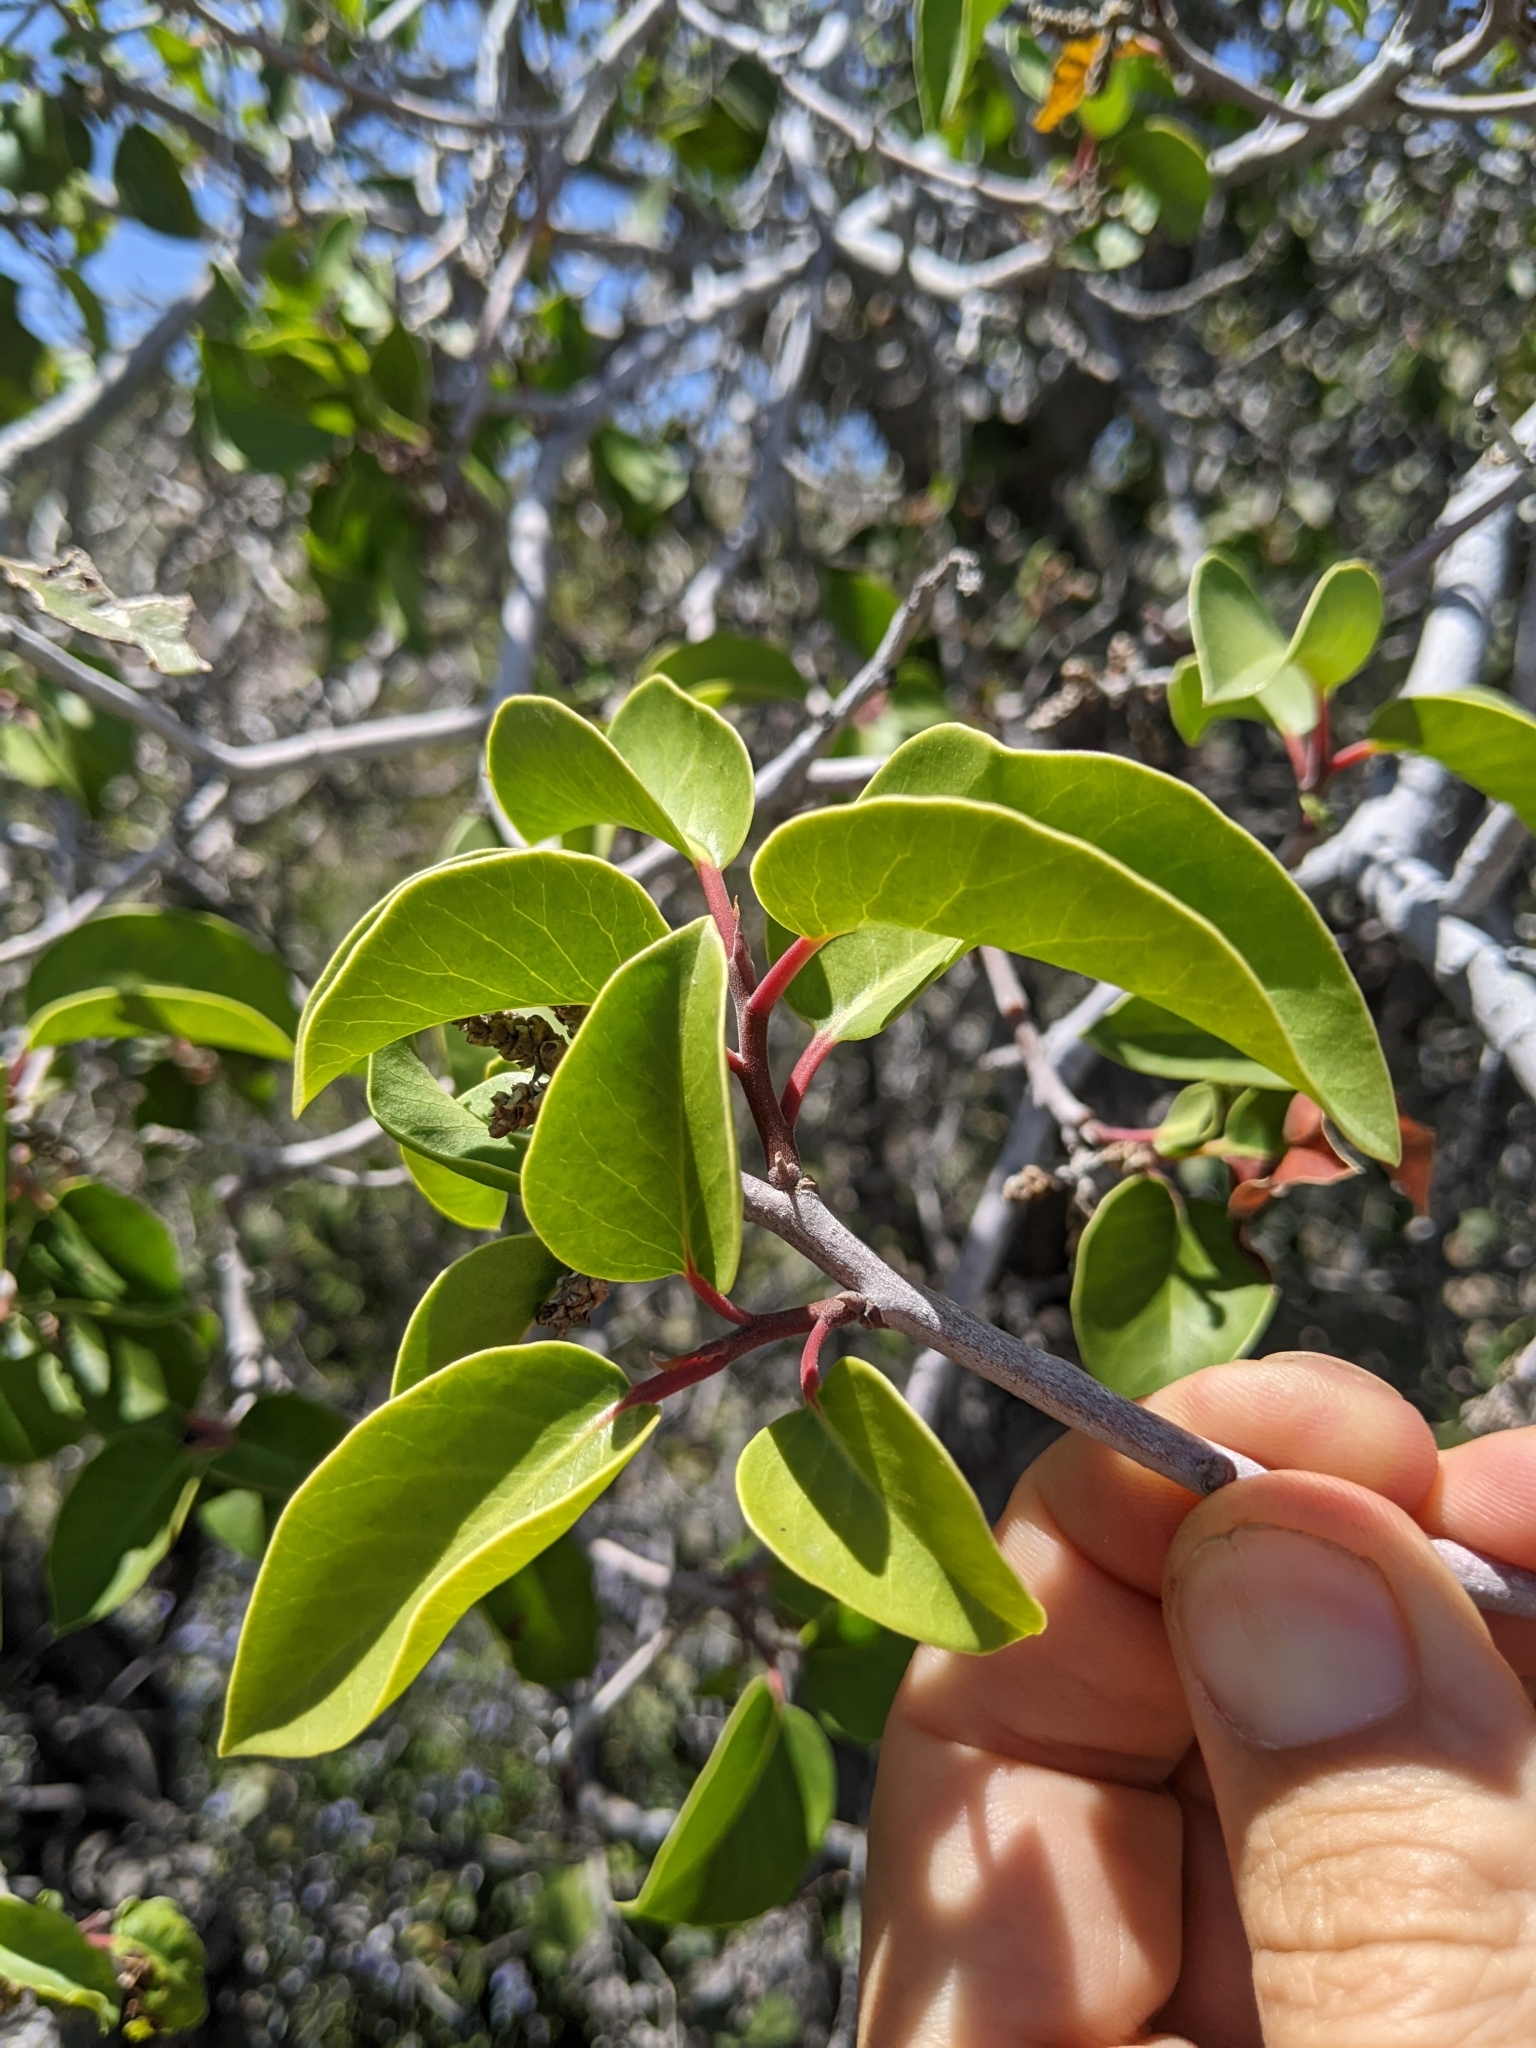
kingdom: Plantae
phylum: Tracheophyta
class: Magnoliopsida
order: Sapindales
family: Anacardiaceae
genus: Rhus
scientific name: Rhus ovata
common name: Sugar sumac
